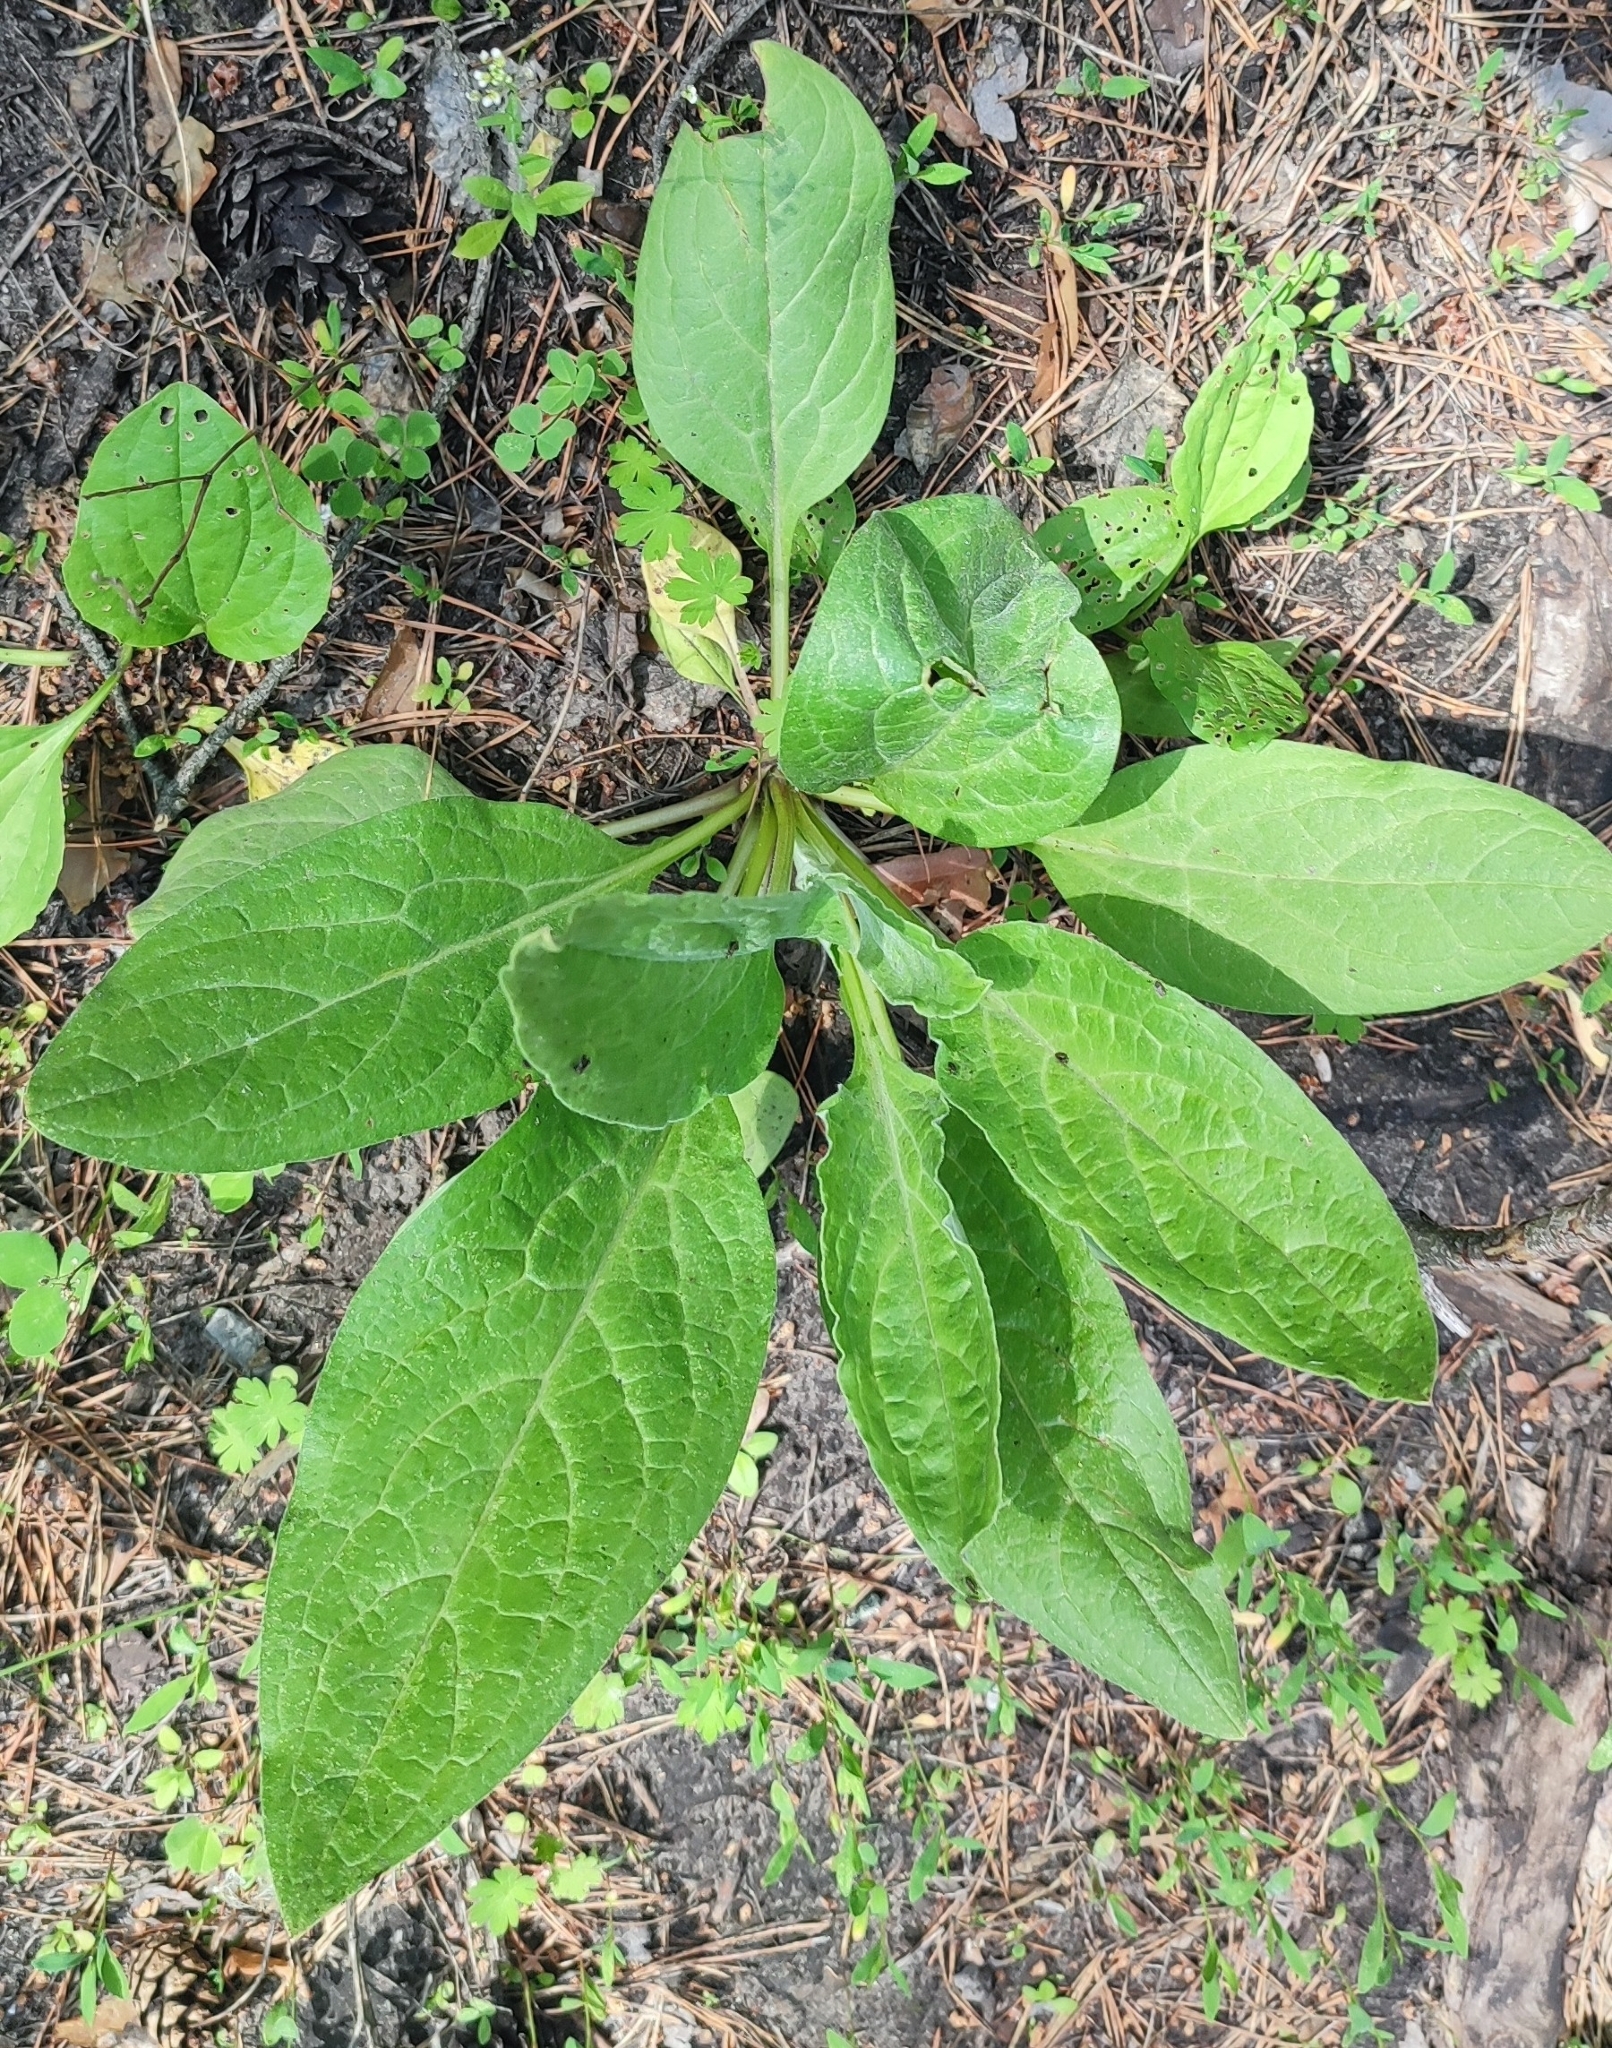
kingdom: Plantae
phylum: Tracheophyta
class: Magnoliopsida
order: Boraginales
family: Boraginaceae
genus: Cynoglossum
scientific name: Cynoglossum officinale
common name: Hound's-tongue
